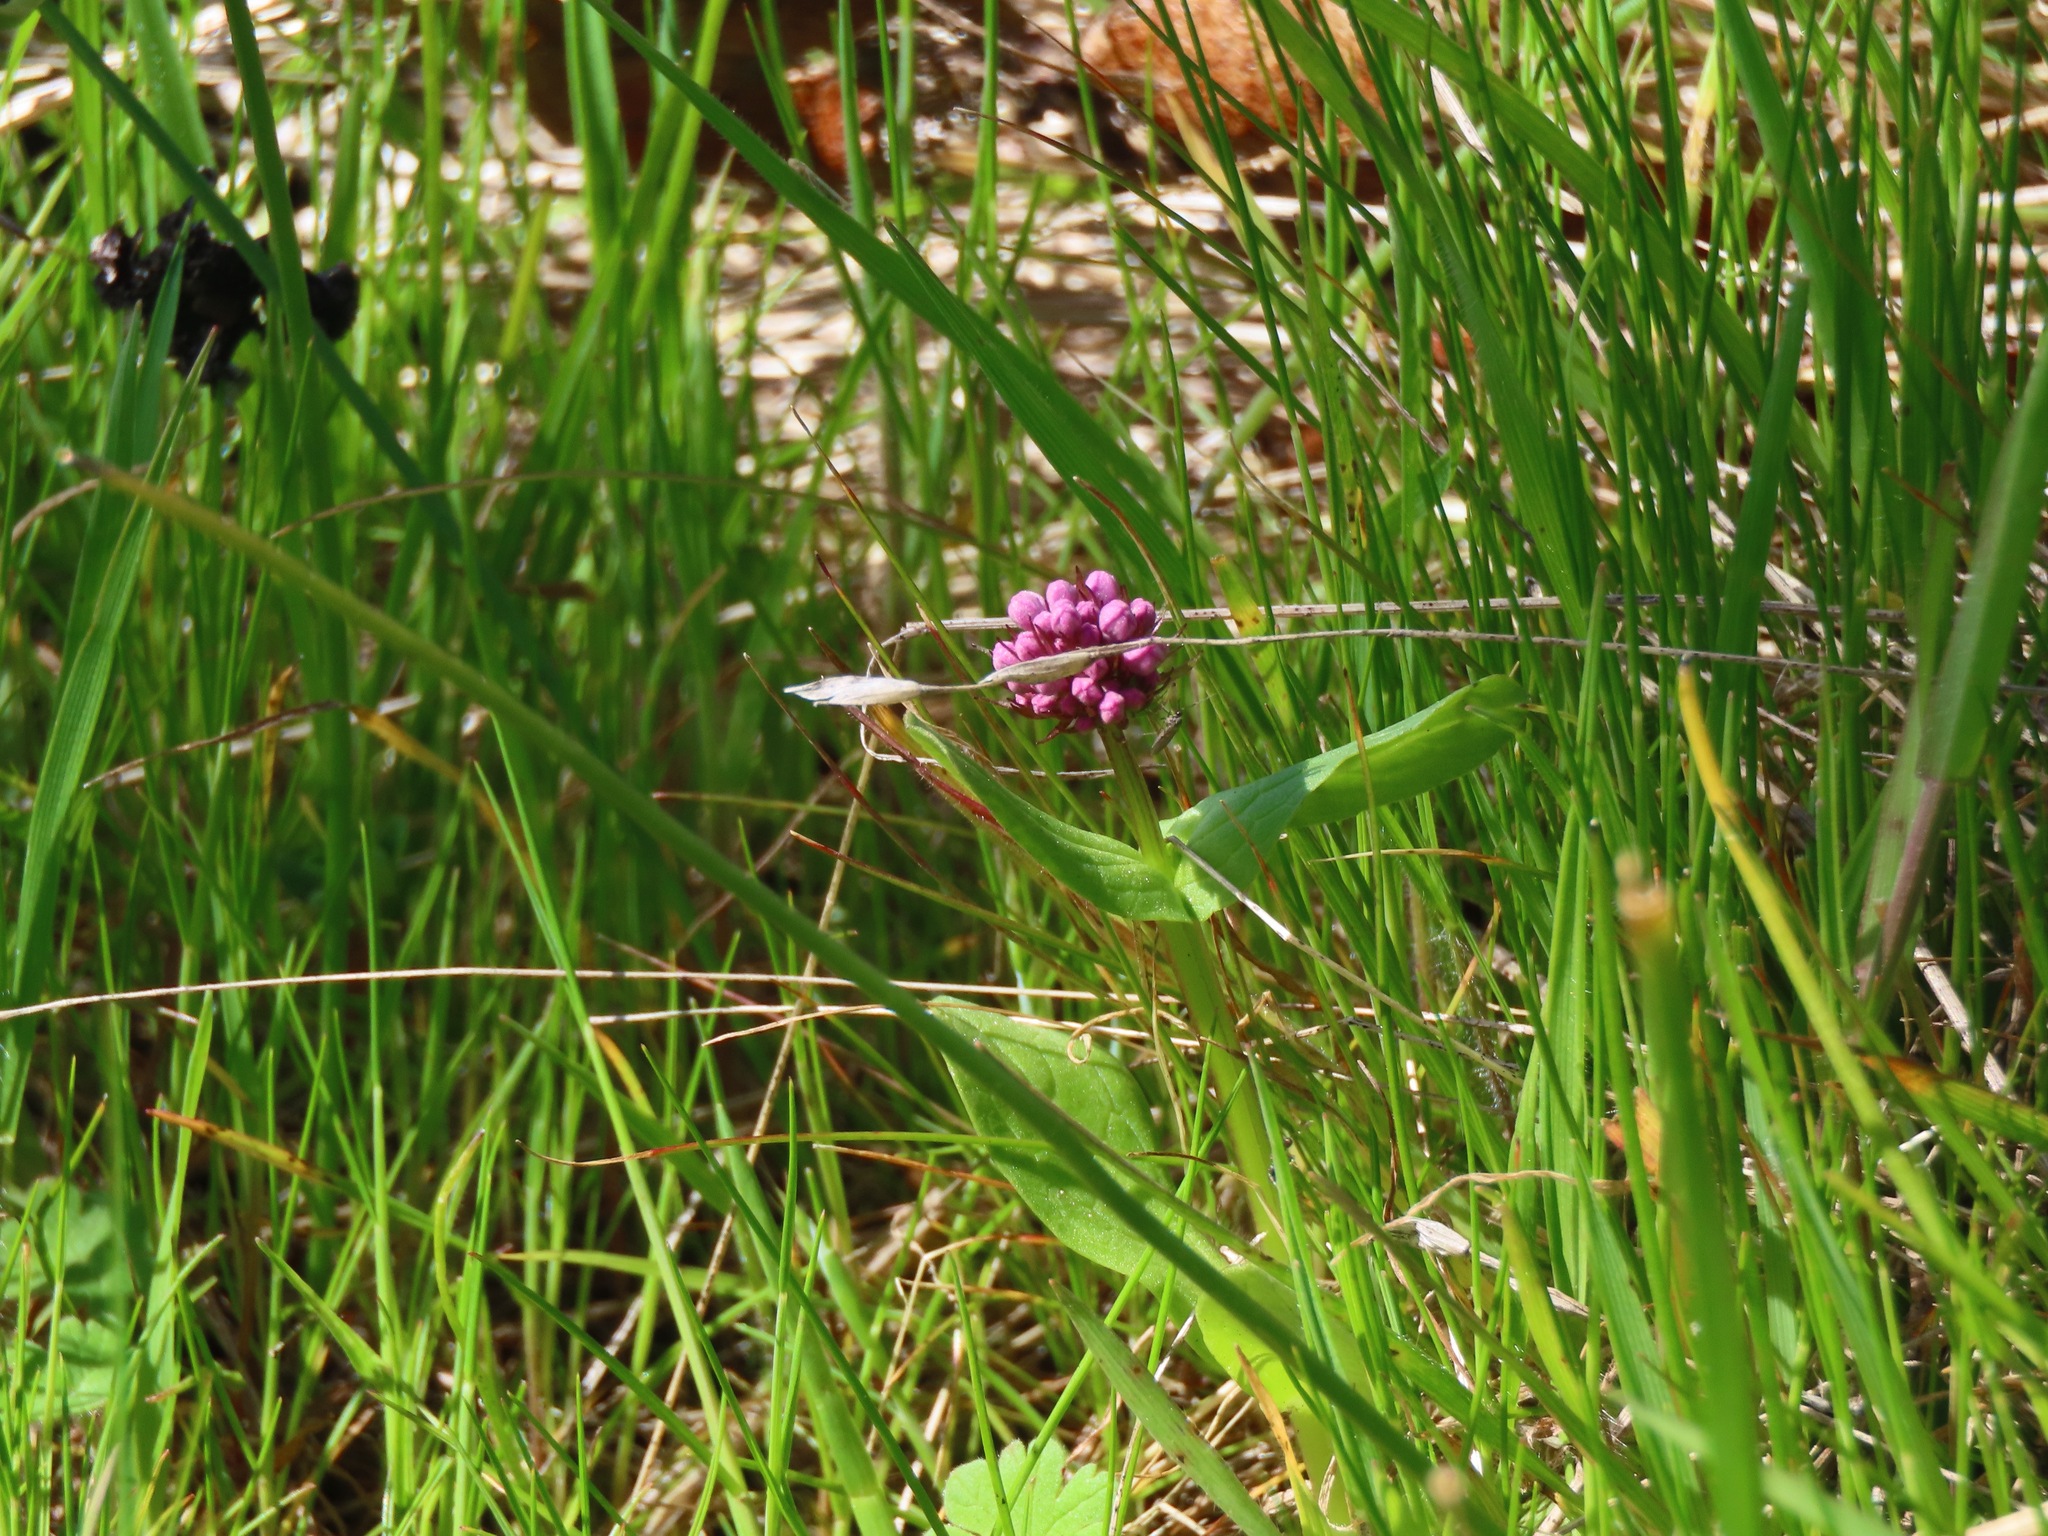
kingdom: Plantae
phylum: Tracheophyta
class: Magnoliopsida
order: Dipsacales
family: Caprifoliaceae
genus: Plectritis
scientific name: Plectritis congesta
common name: Pink plectritis
